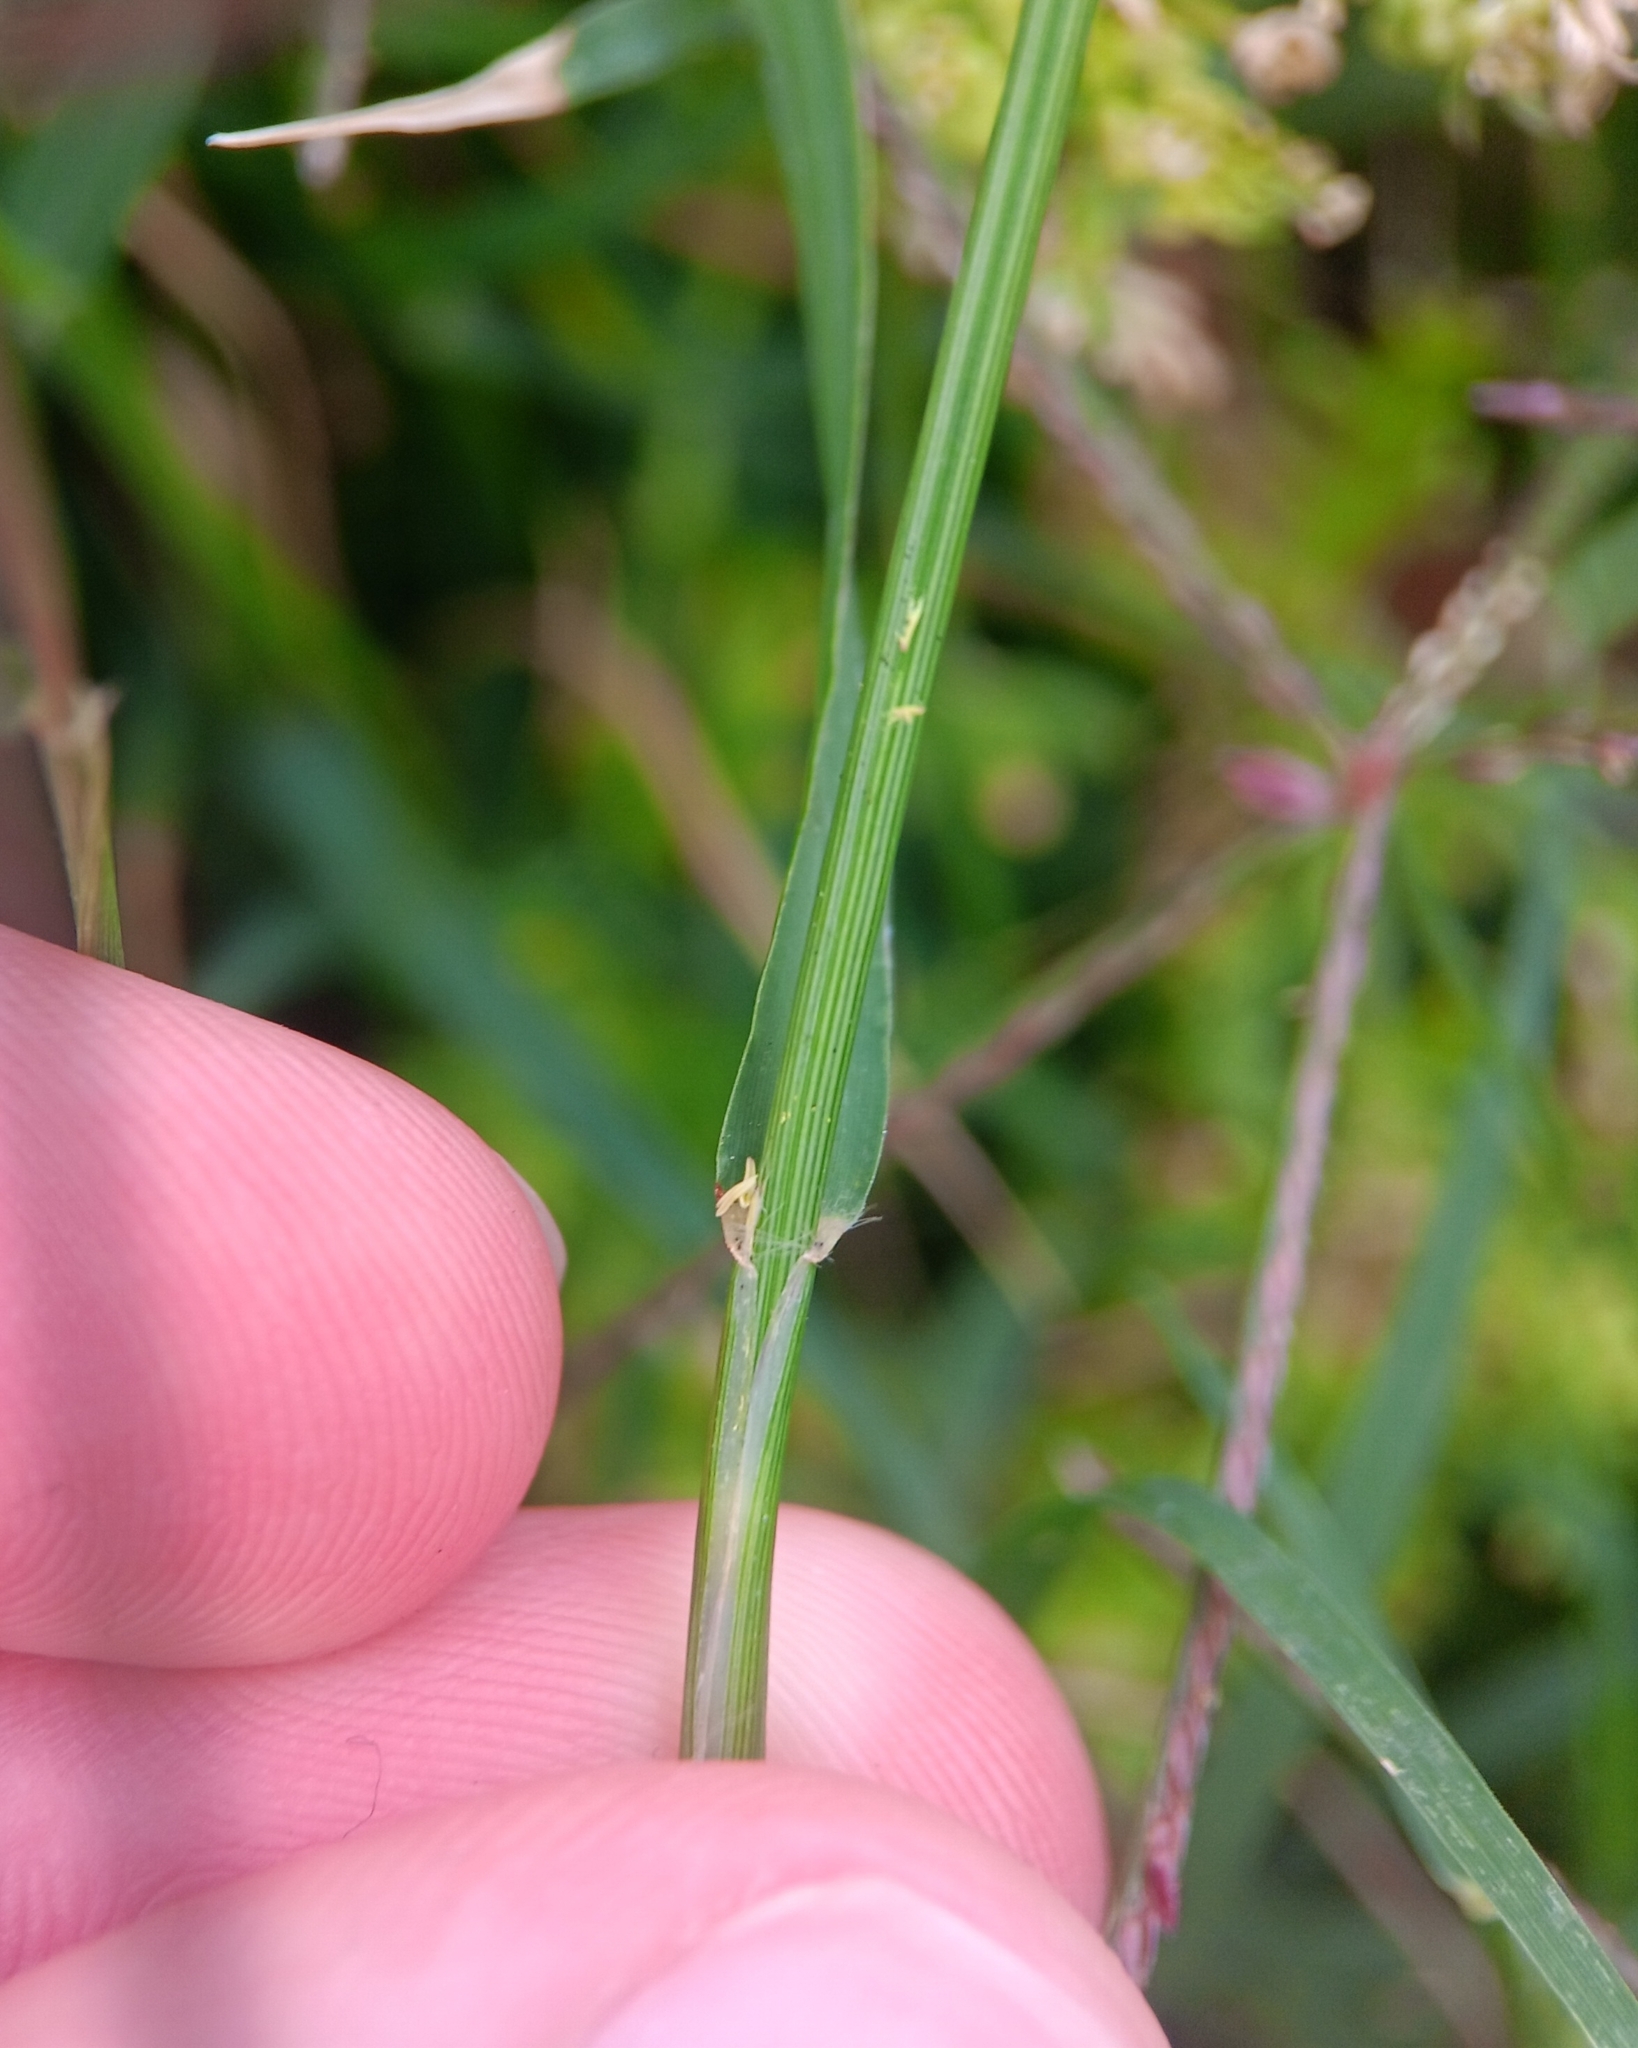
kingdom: Plantae
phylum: Tracheophyta
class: Liliopsida
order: Poales
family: Poaceae
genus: Cynodon
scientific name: Cynodon dactylon
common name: Bermuda grass
